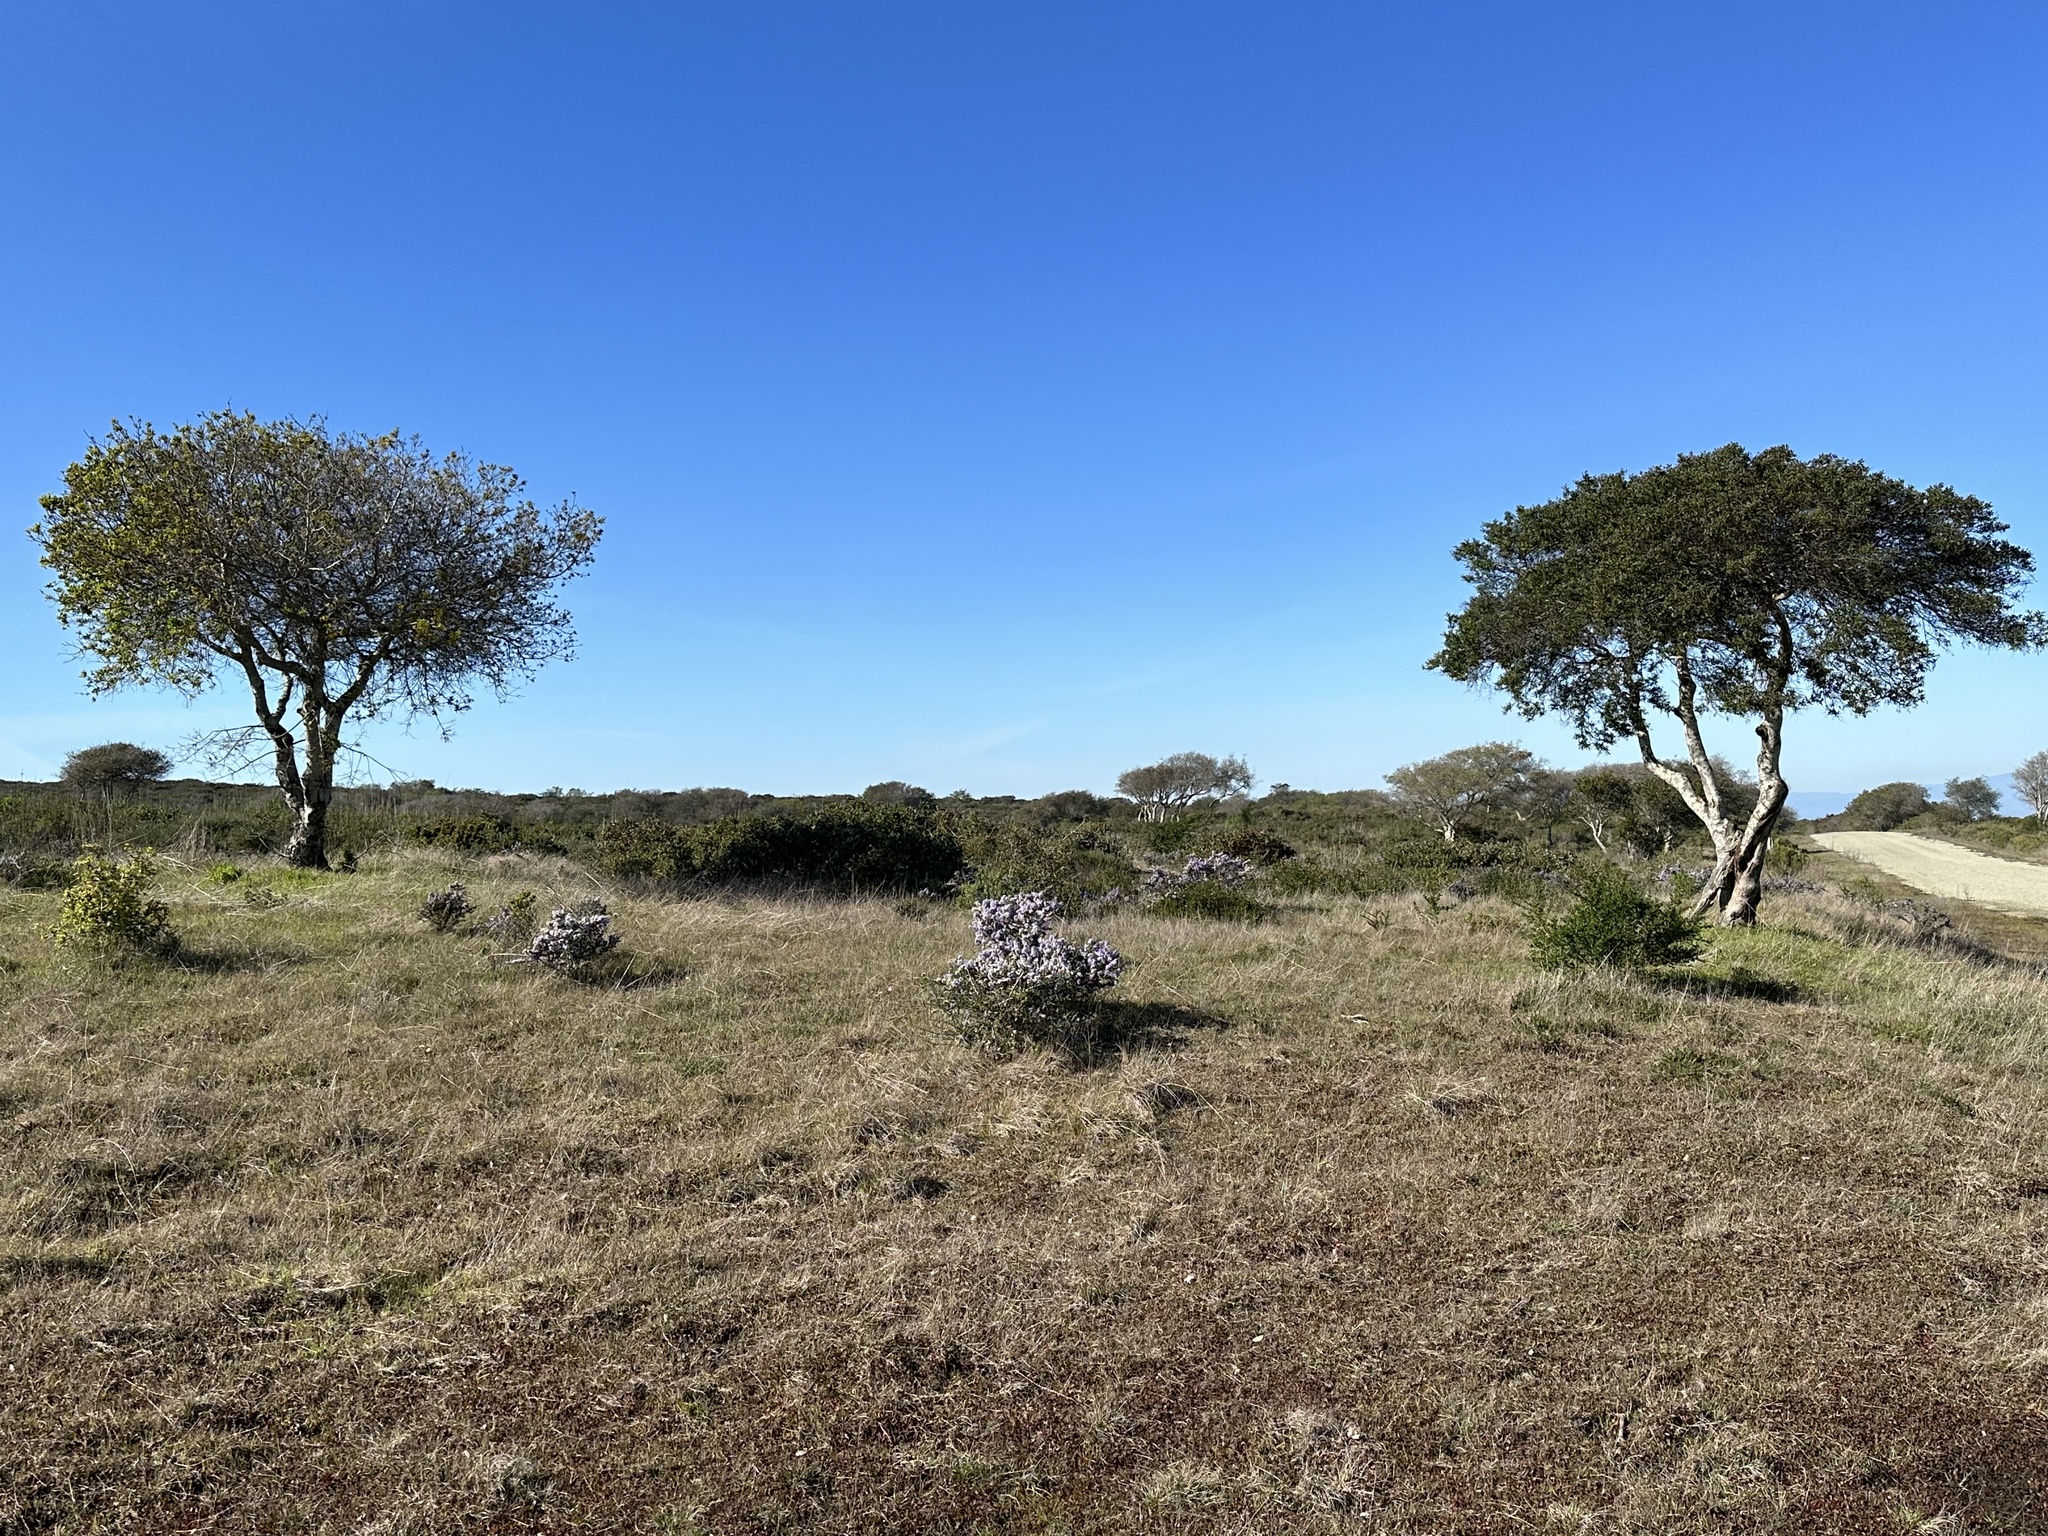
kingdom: Plantae
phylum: Tracheophyta
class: Magnoliopsida
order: Rosales
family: Rhamnaceae
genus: Ceanothus
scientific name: Ceanothus cuneatus
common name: Cuneate ceanothus
